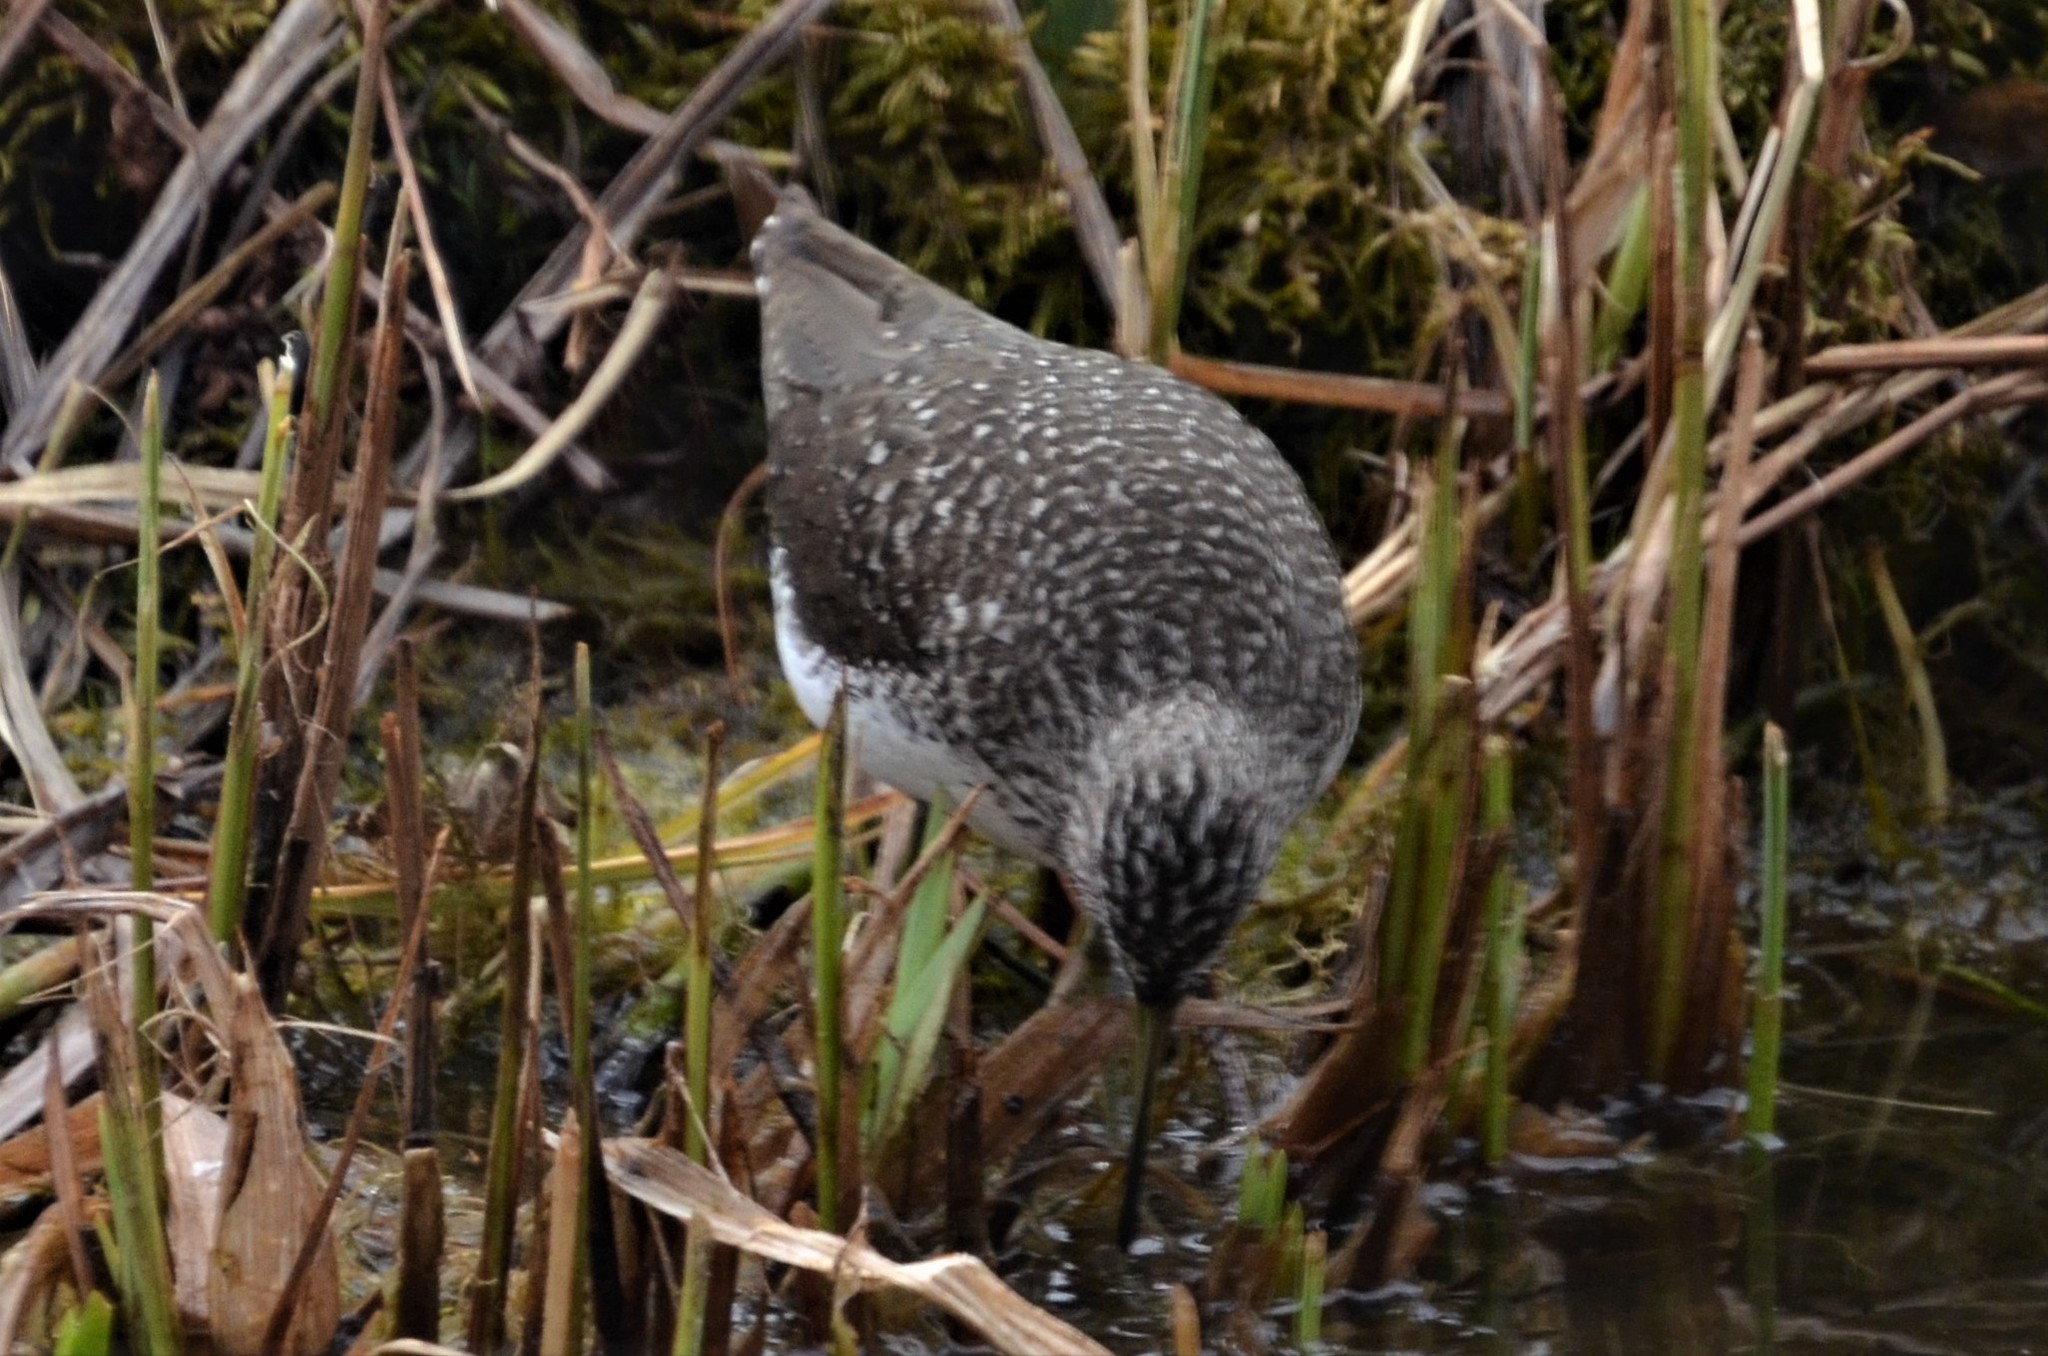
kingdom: Animalia
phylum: Chordata
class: Aves
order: Charadriiformes
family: Scolopacidae
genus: Tringa
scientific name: Tringa ochropus
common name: Green sandpiper
